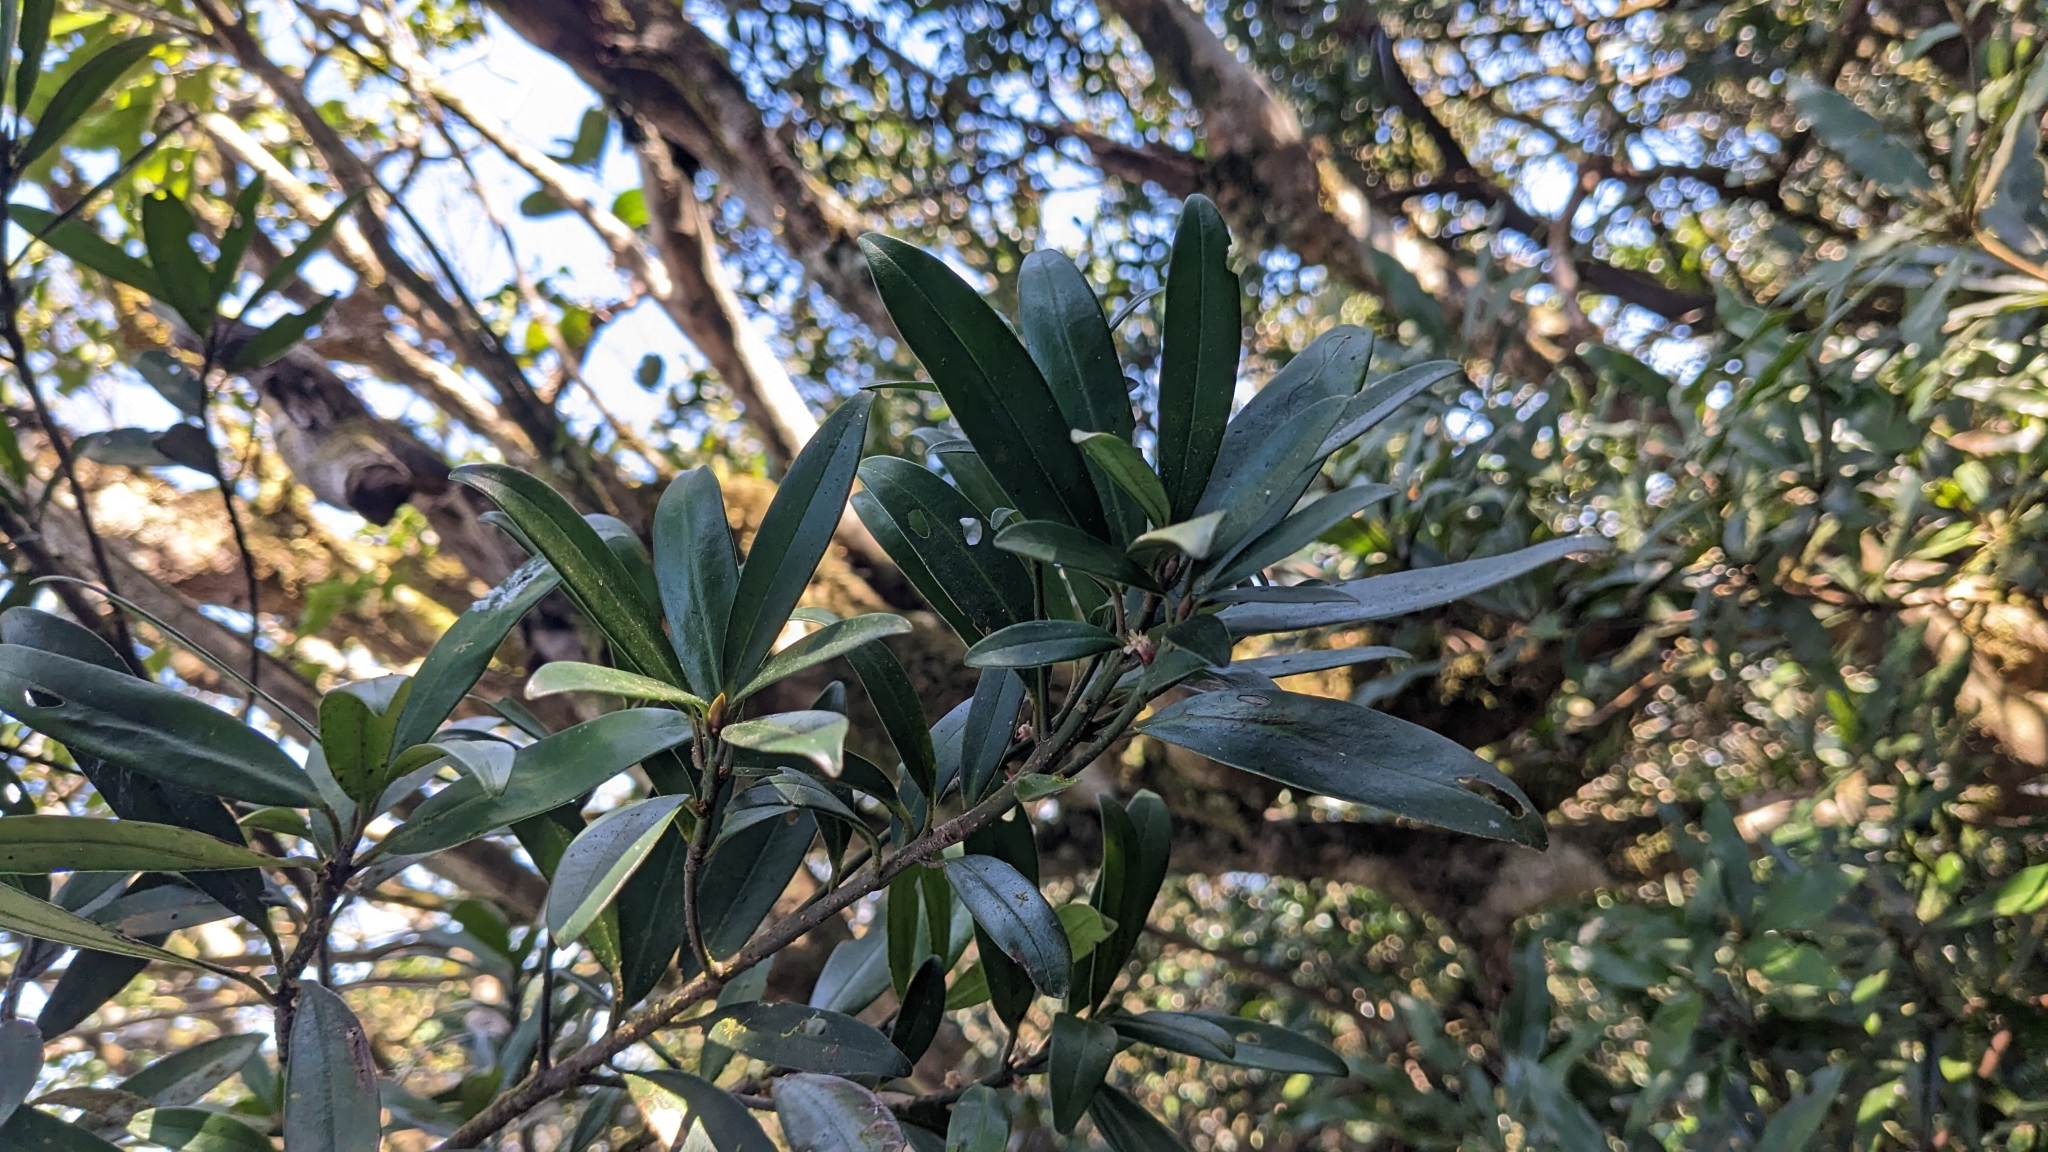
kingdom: Plantae
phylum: Tracheophyta
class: Magnoliopsida
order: Ericales
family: Primulaceae
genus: Myrsine
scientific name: Myrsine seguinii
